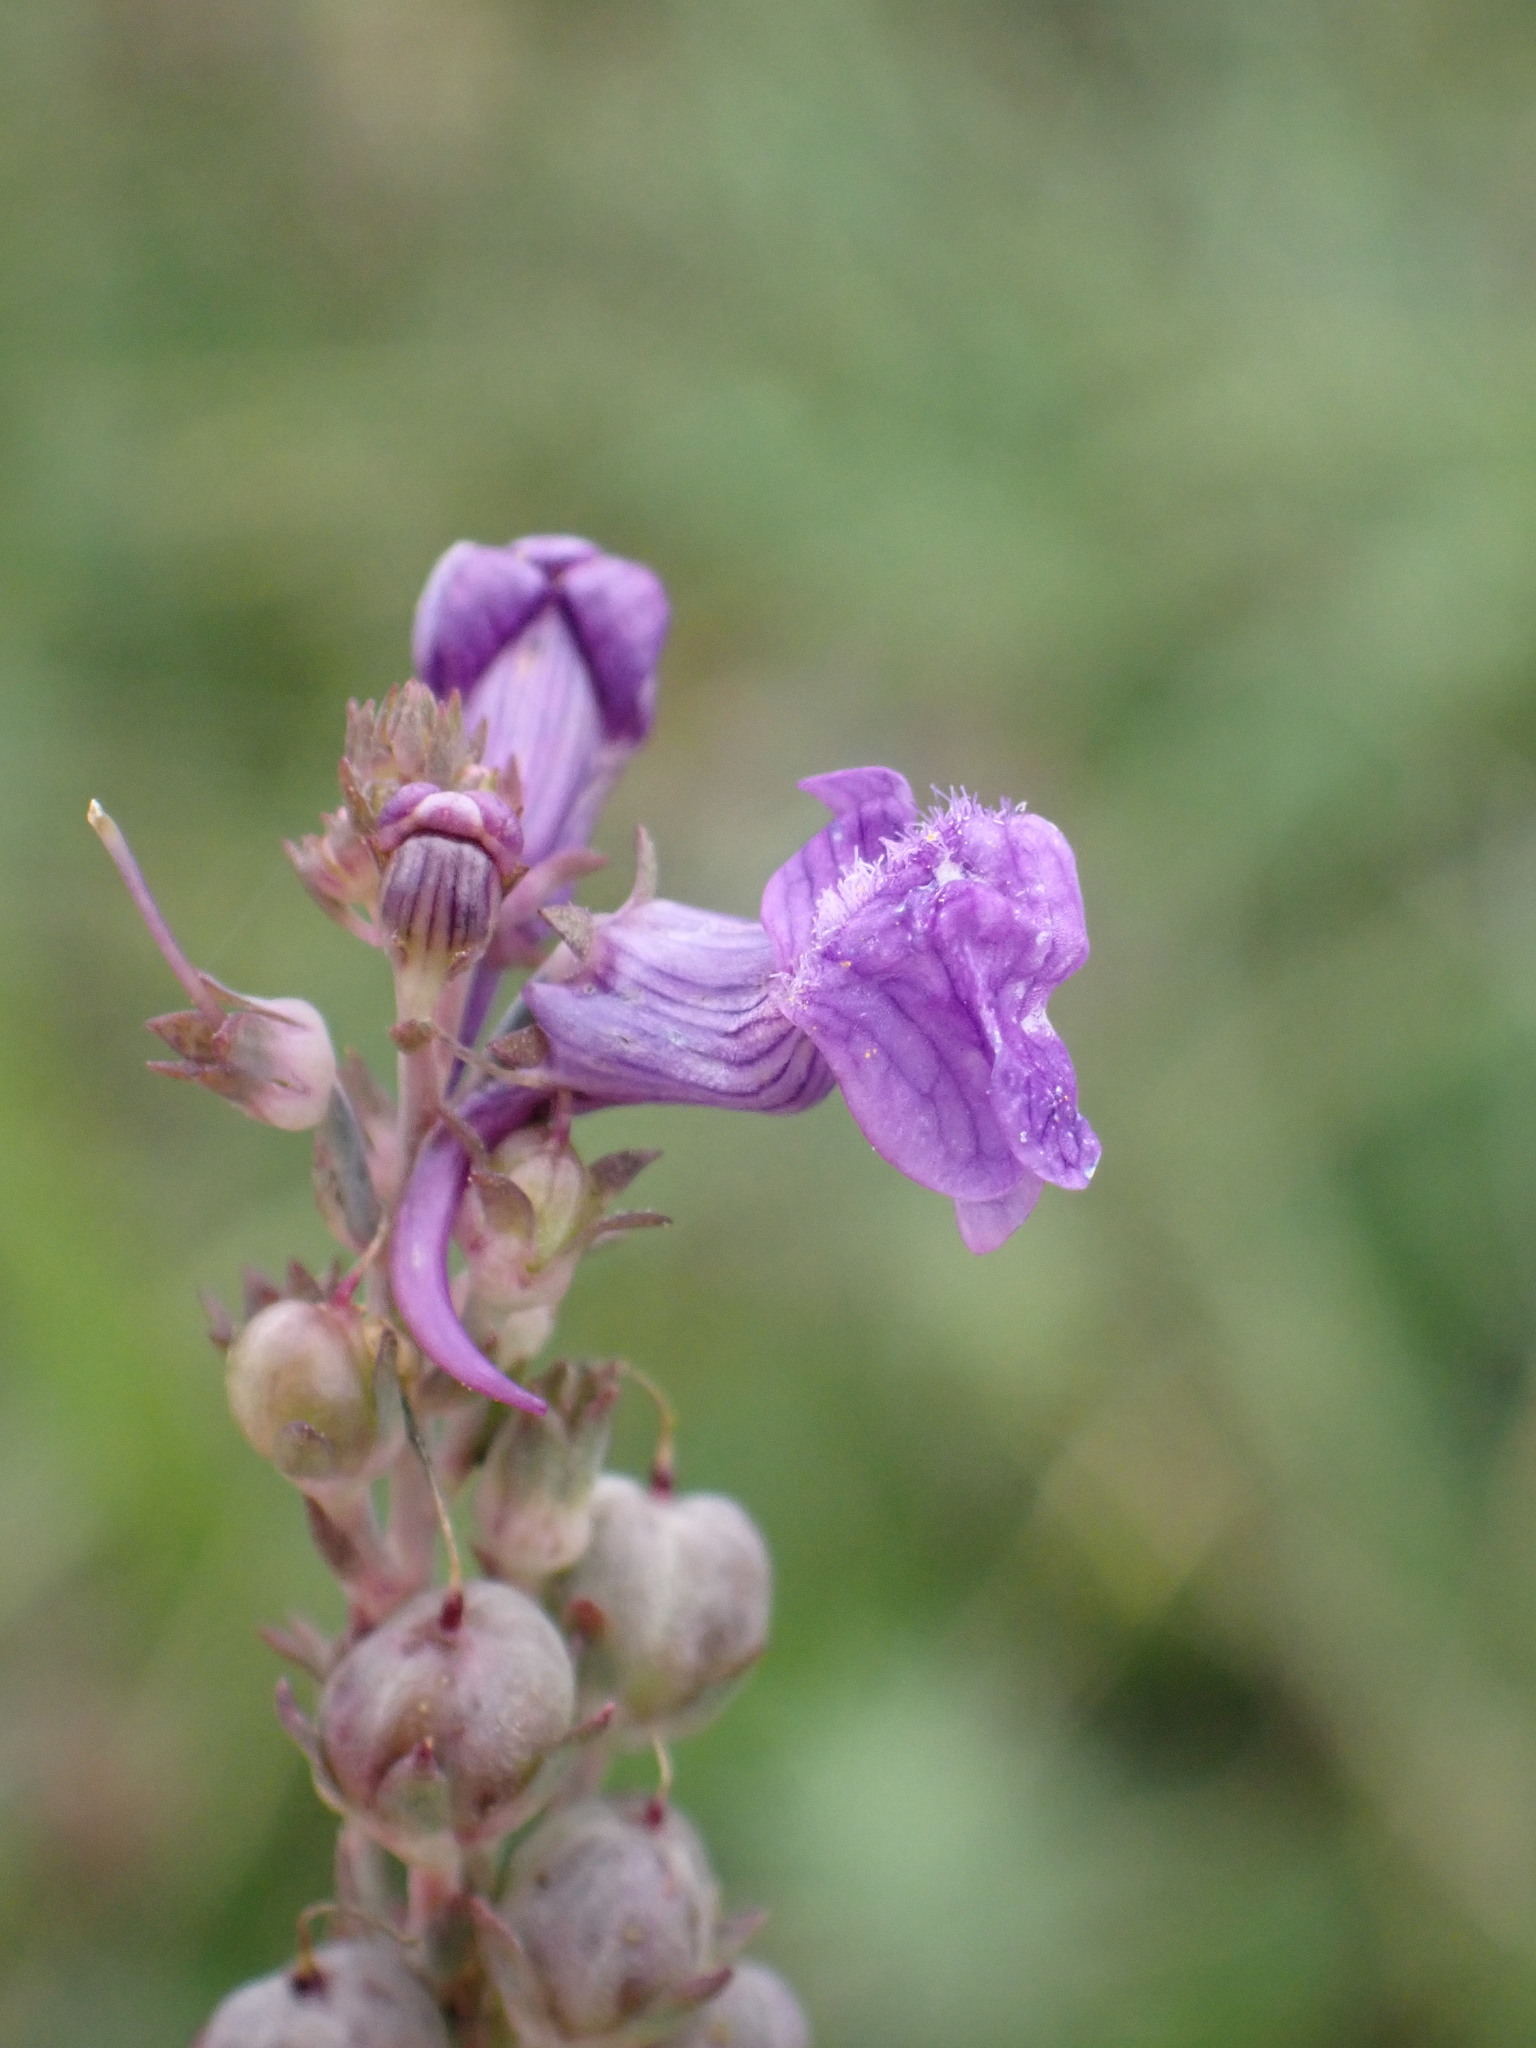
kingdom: Plantae
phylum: Tracheophyta
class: Magnoliopsida
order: Lamiales
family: Plantaginaceae
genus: Linaria
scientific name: Linaria purpurea
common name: Purple toadflax
